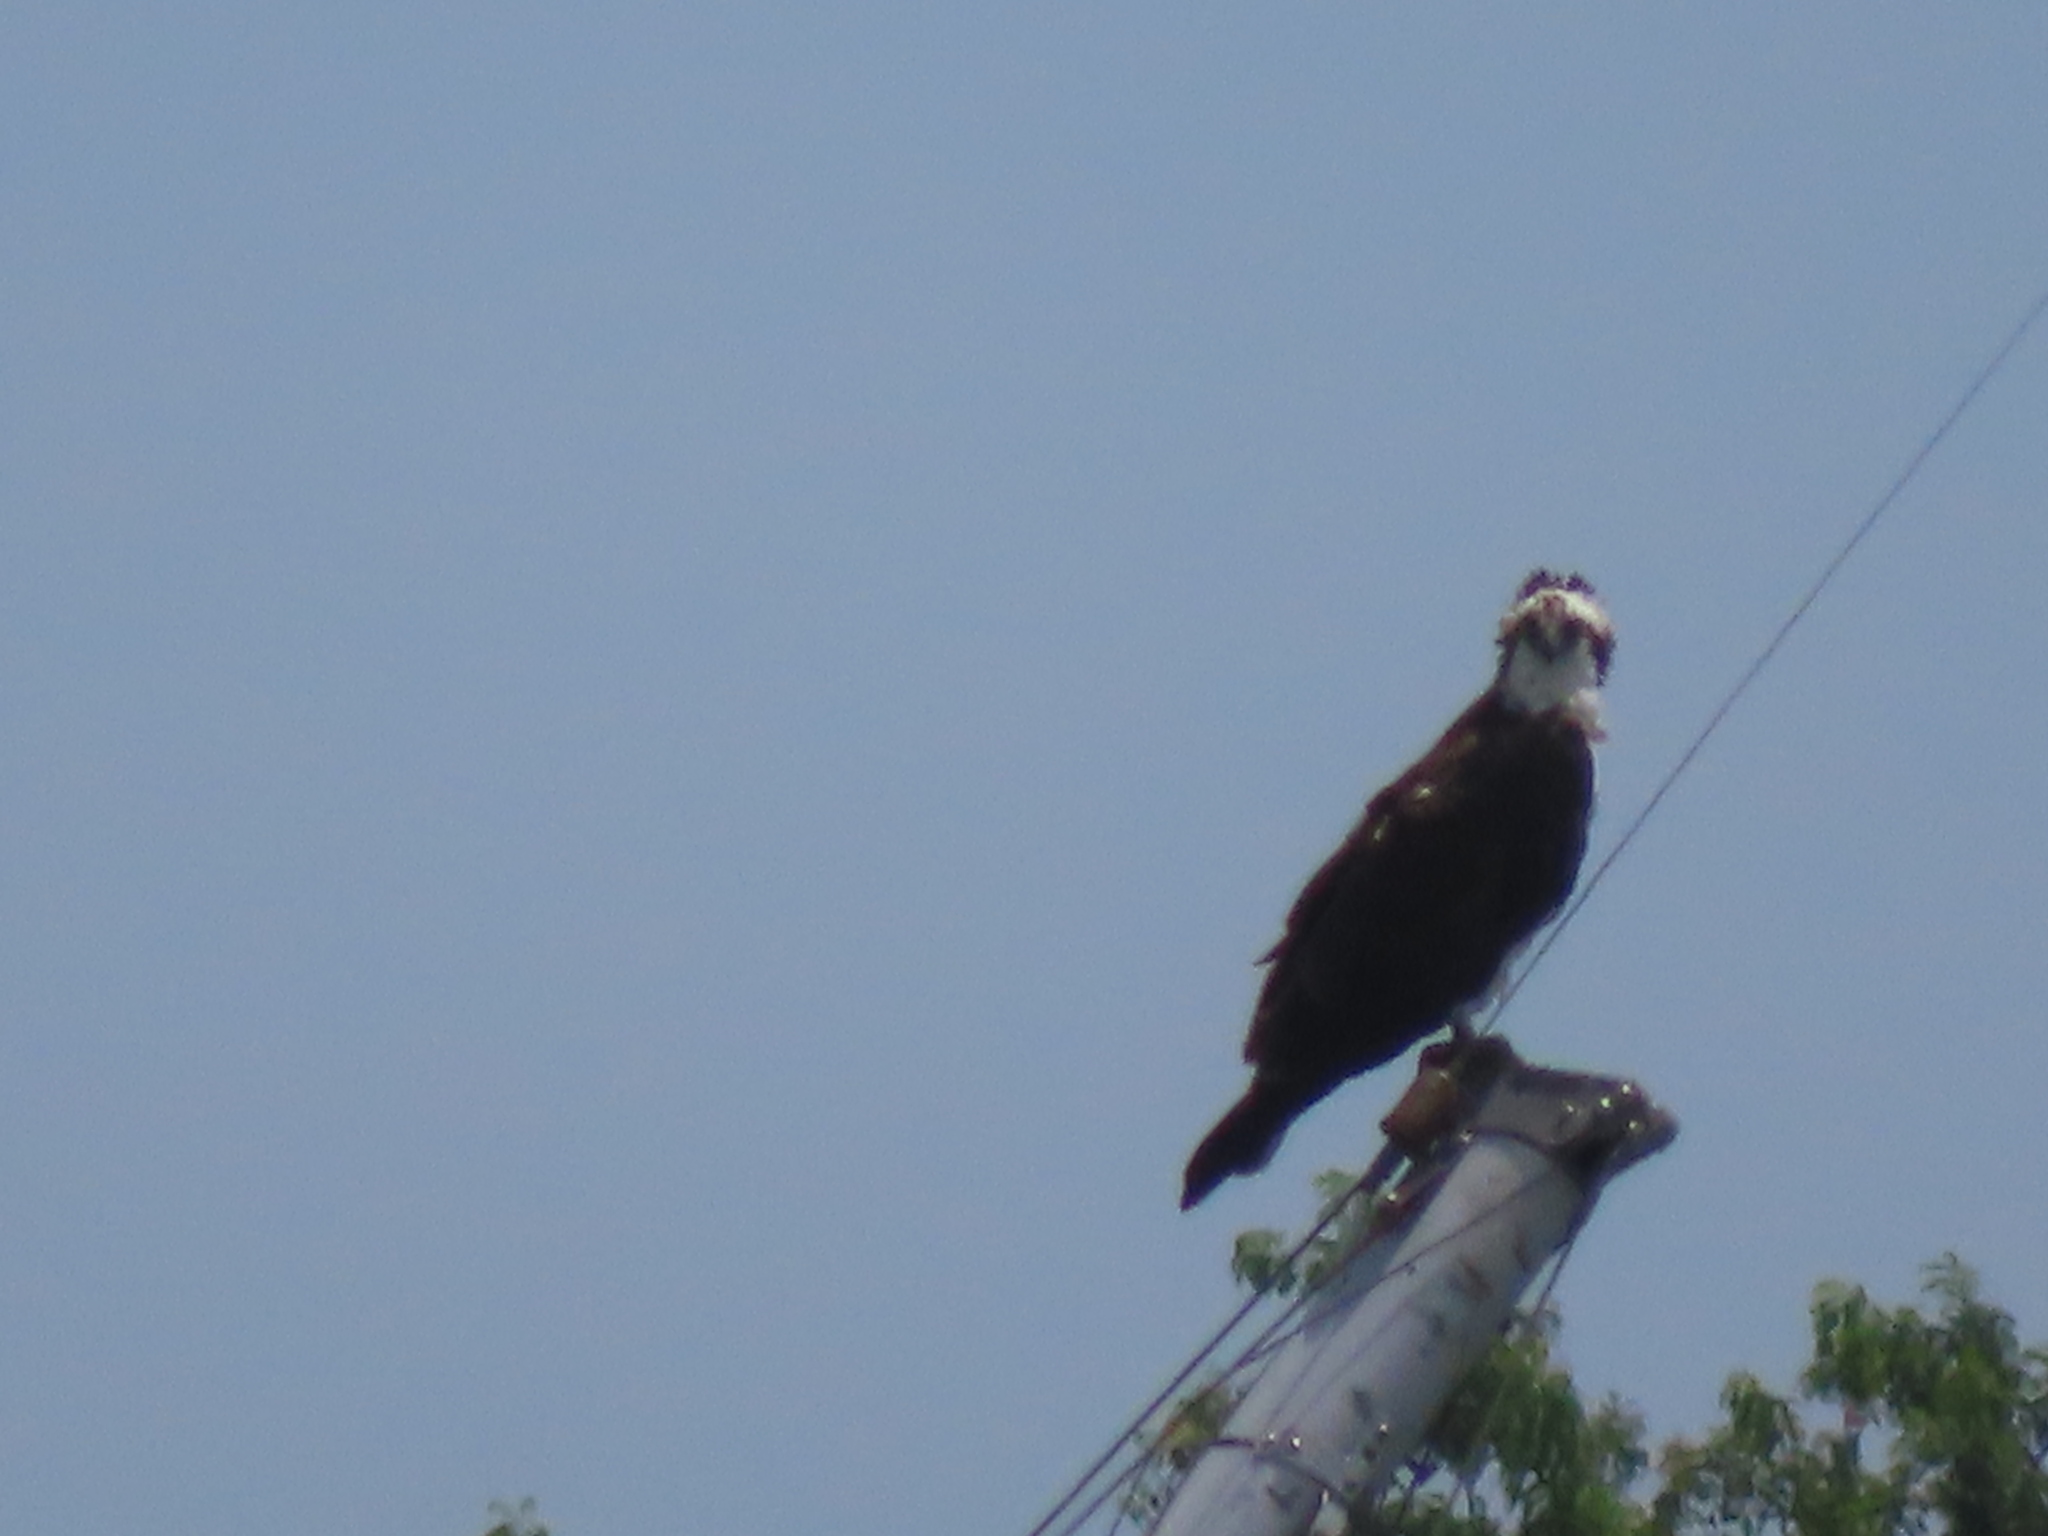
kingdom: Animalia
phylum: Chordata
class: Aves
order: Accipitriformes
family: Pandionidae
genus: Pandion
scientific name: Pandion haliaetus
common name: Osprey
